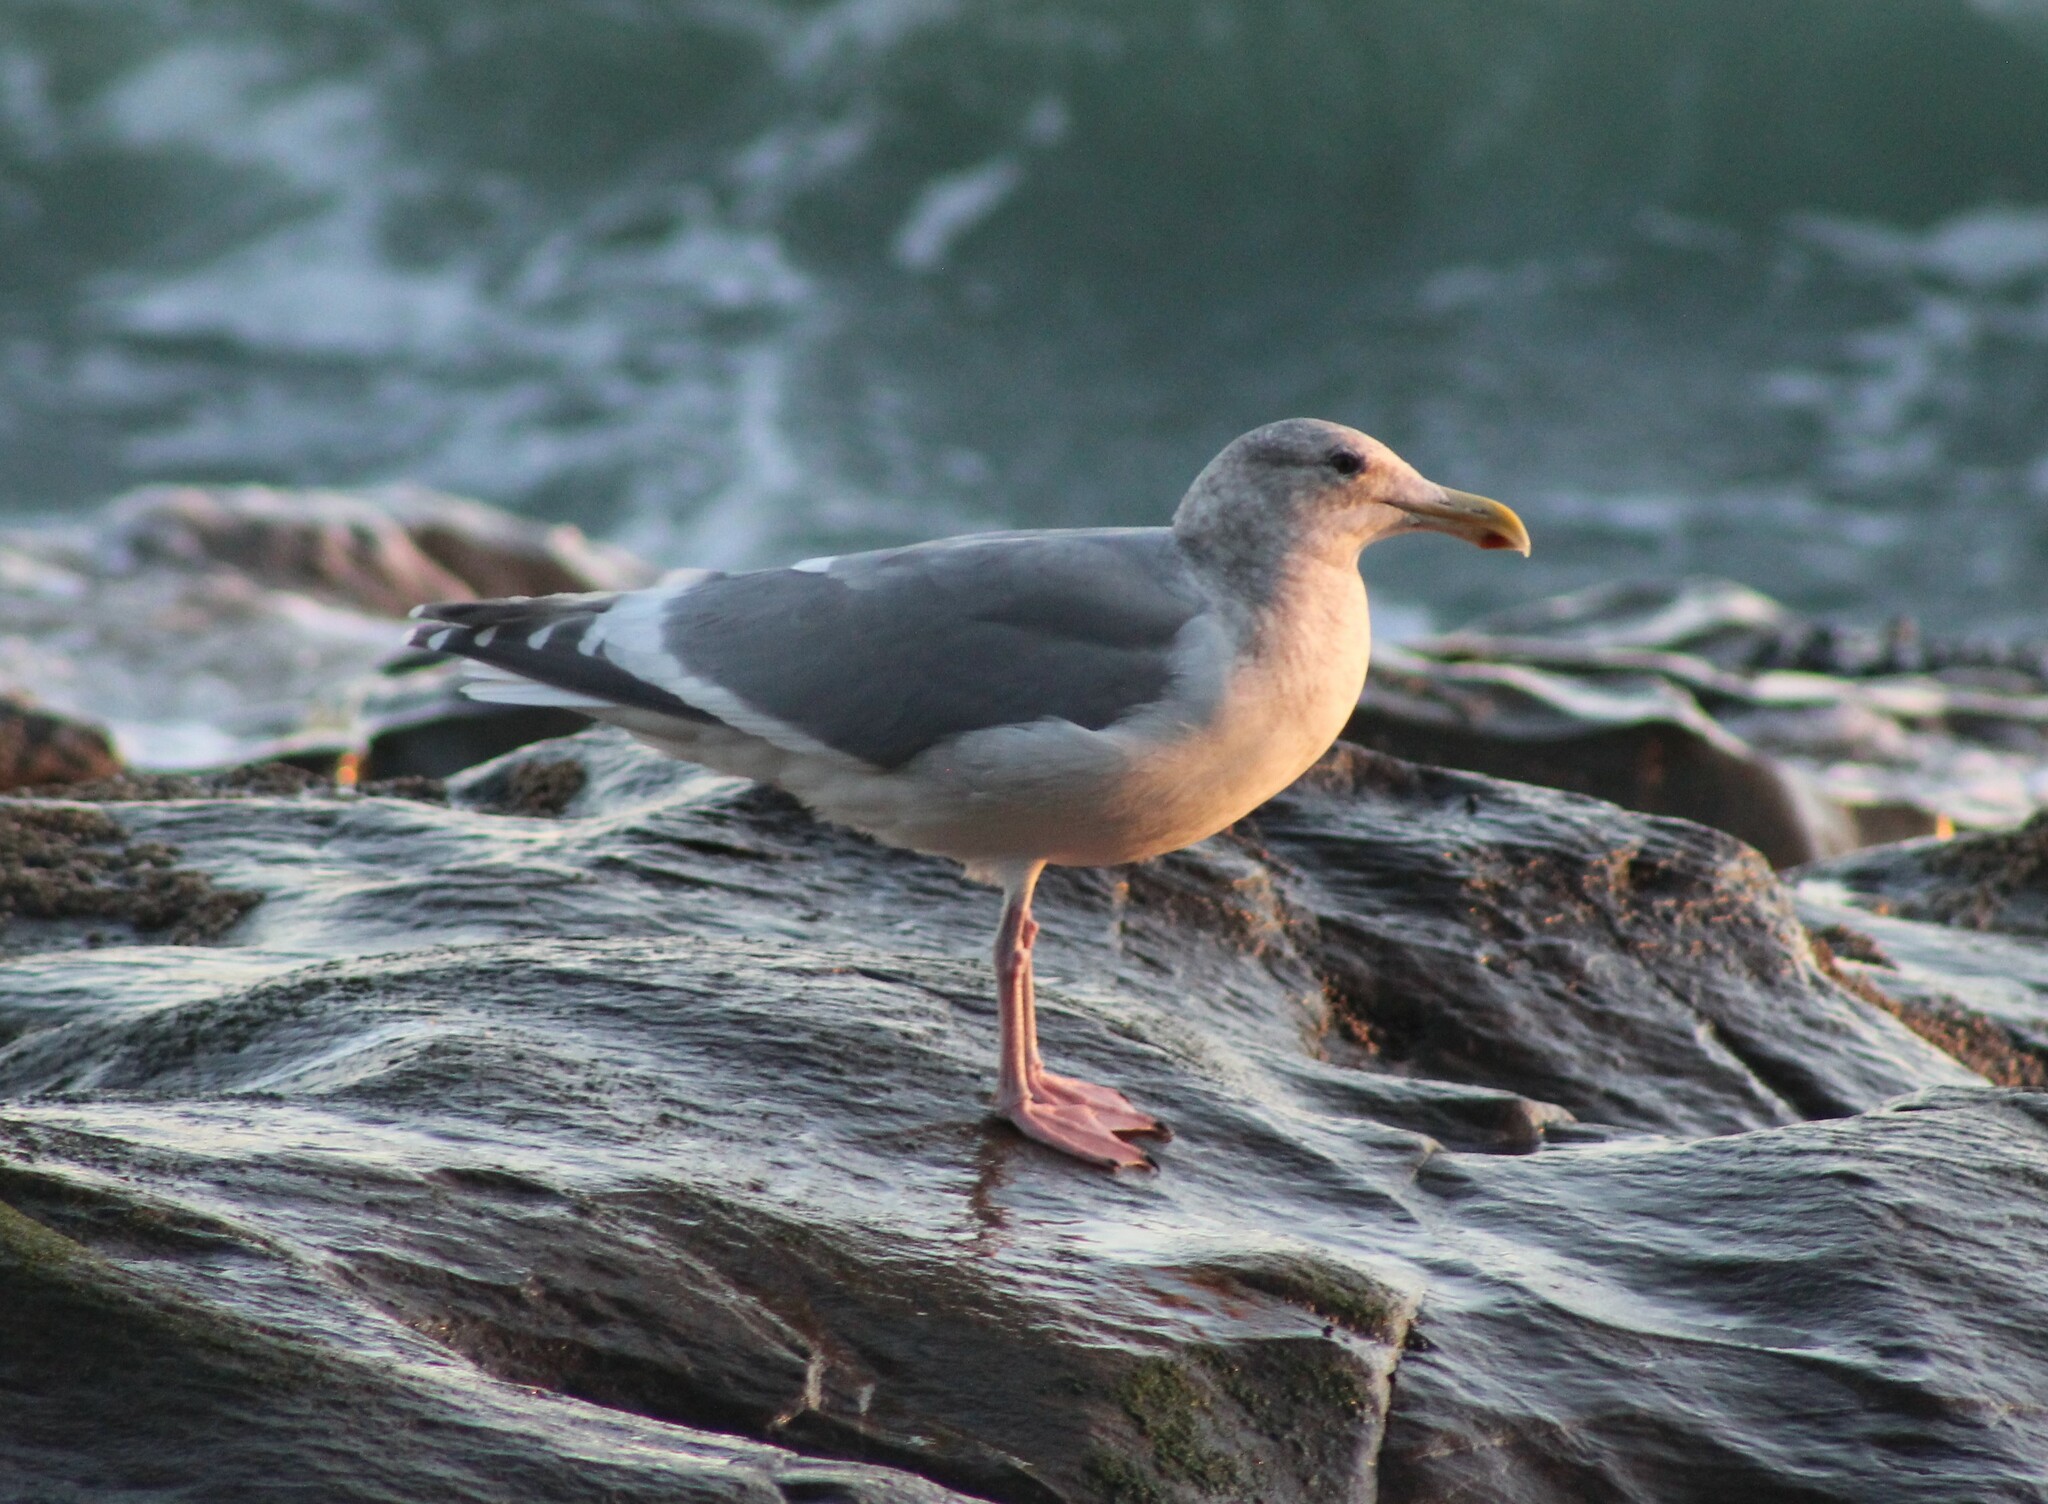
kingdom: Animalia
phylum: Chordata
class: Aves
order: Charadriiformes
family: Laridae
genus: Larus
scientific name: Larus
